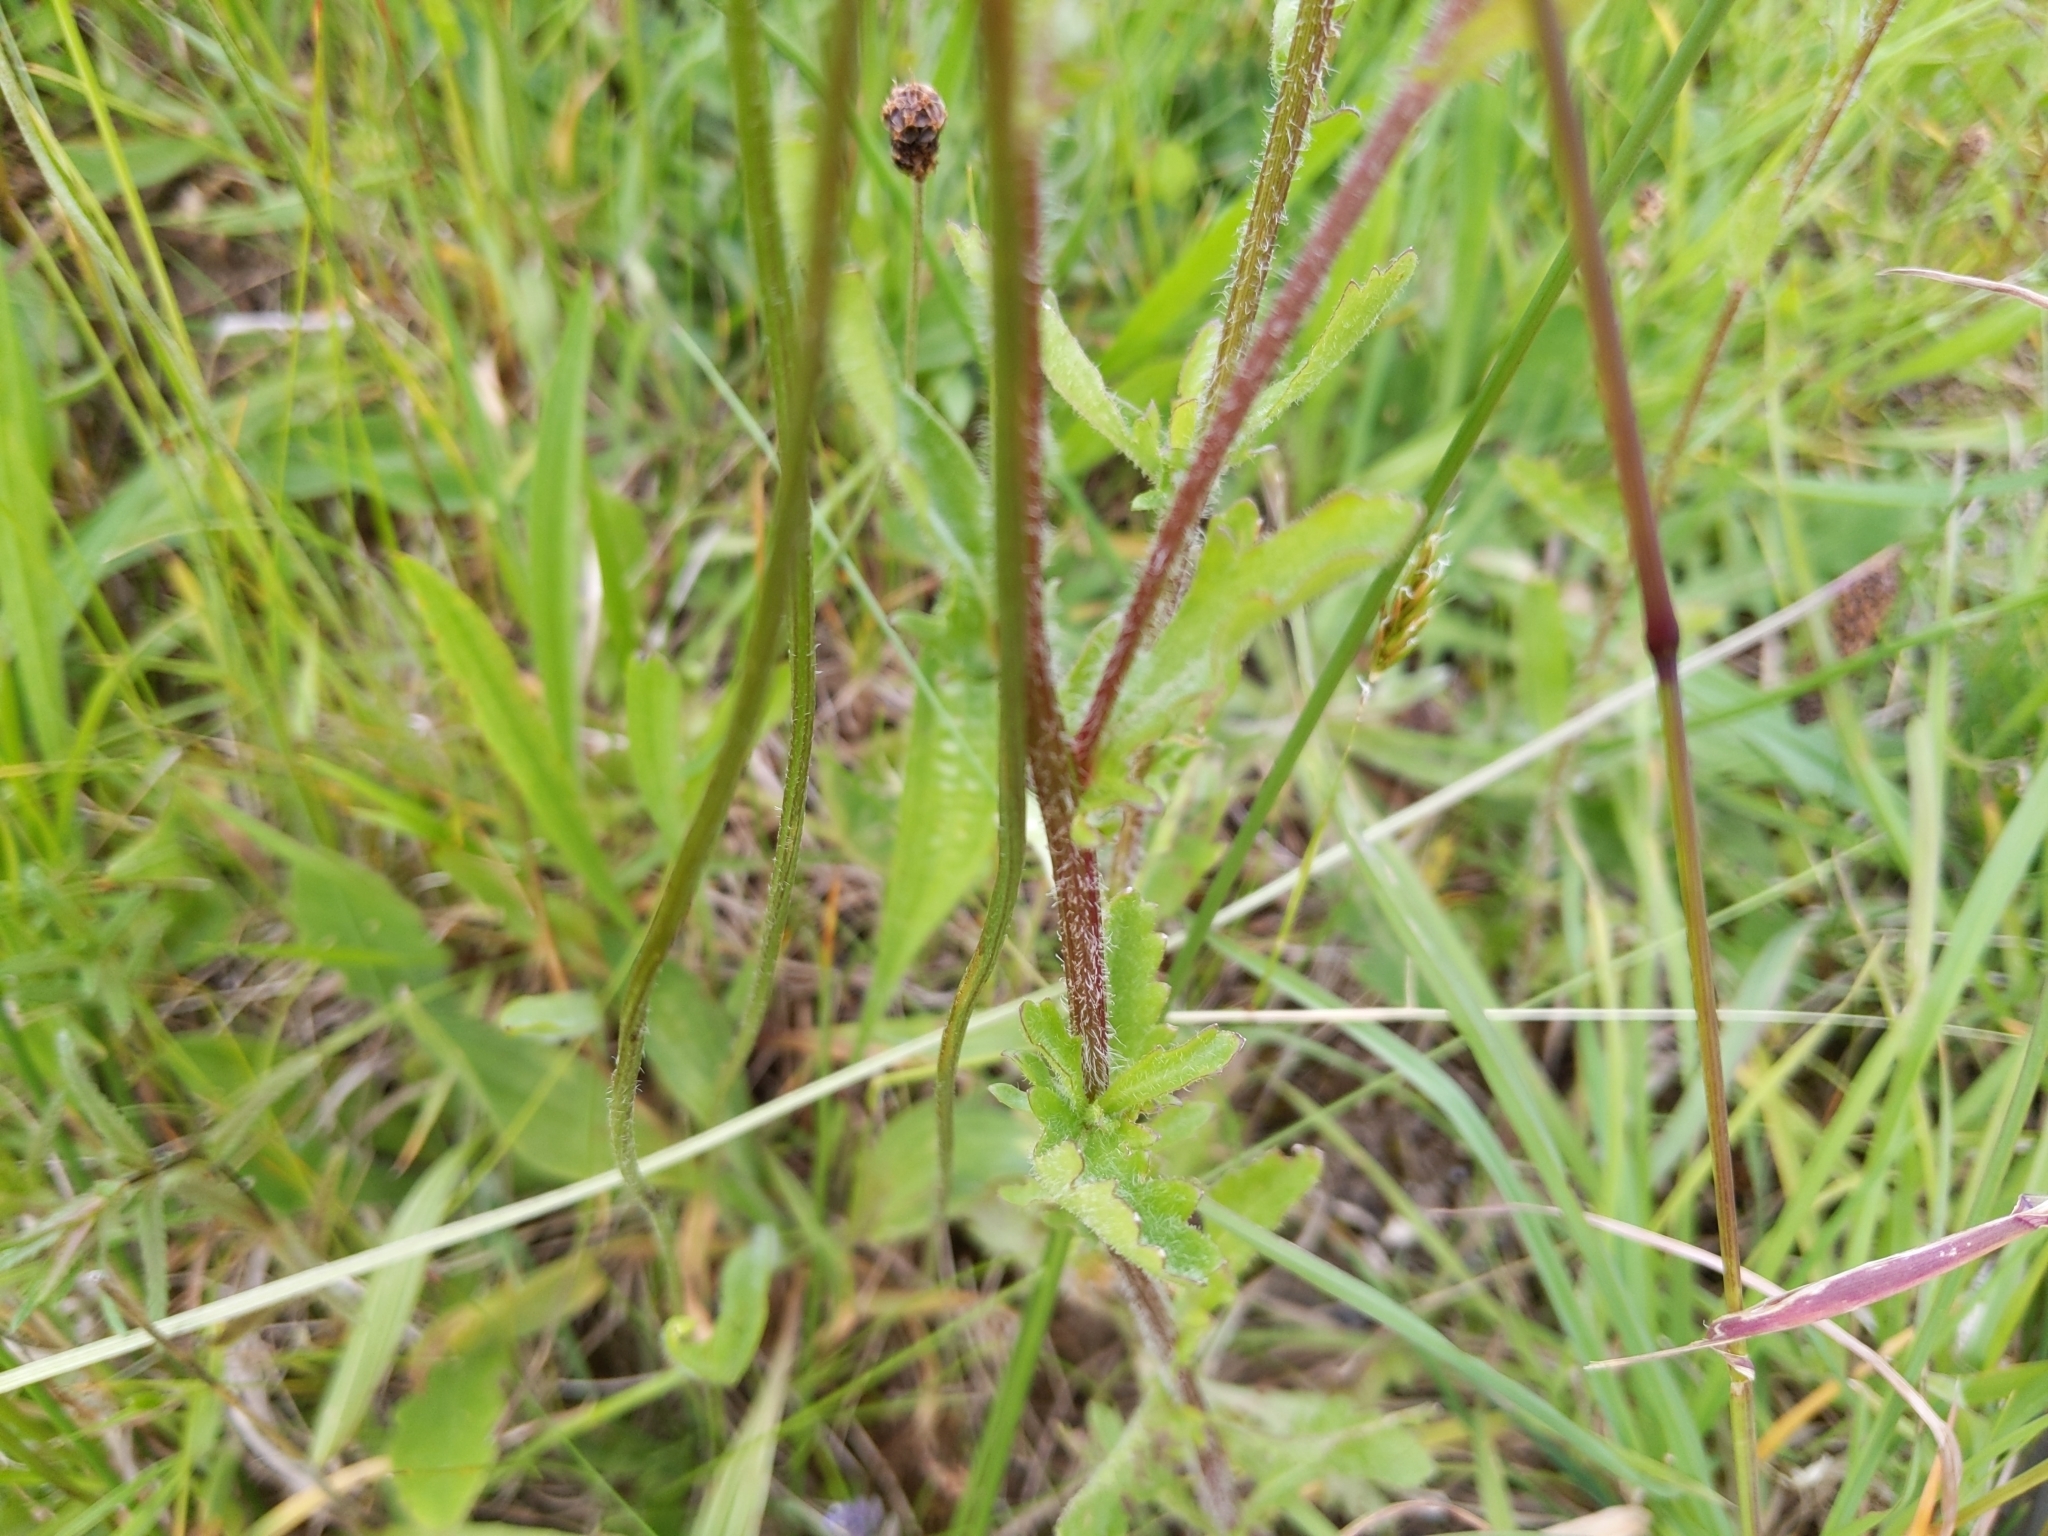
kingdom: Plantae
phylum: Tracheophyta
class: Magnoliopsida
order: Asterales
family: Asteraceae
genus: Leucanthemum
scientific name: Leucanthemum vulgare
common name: Oxeye daisy
